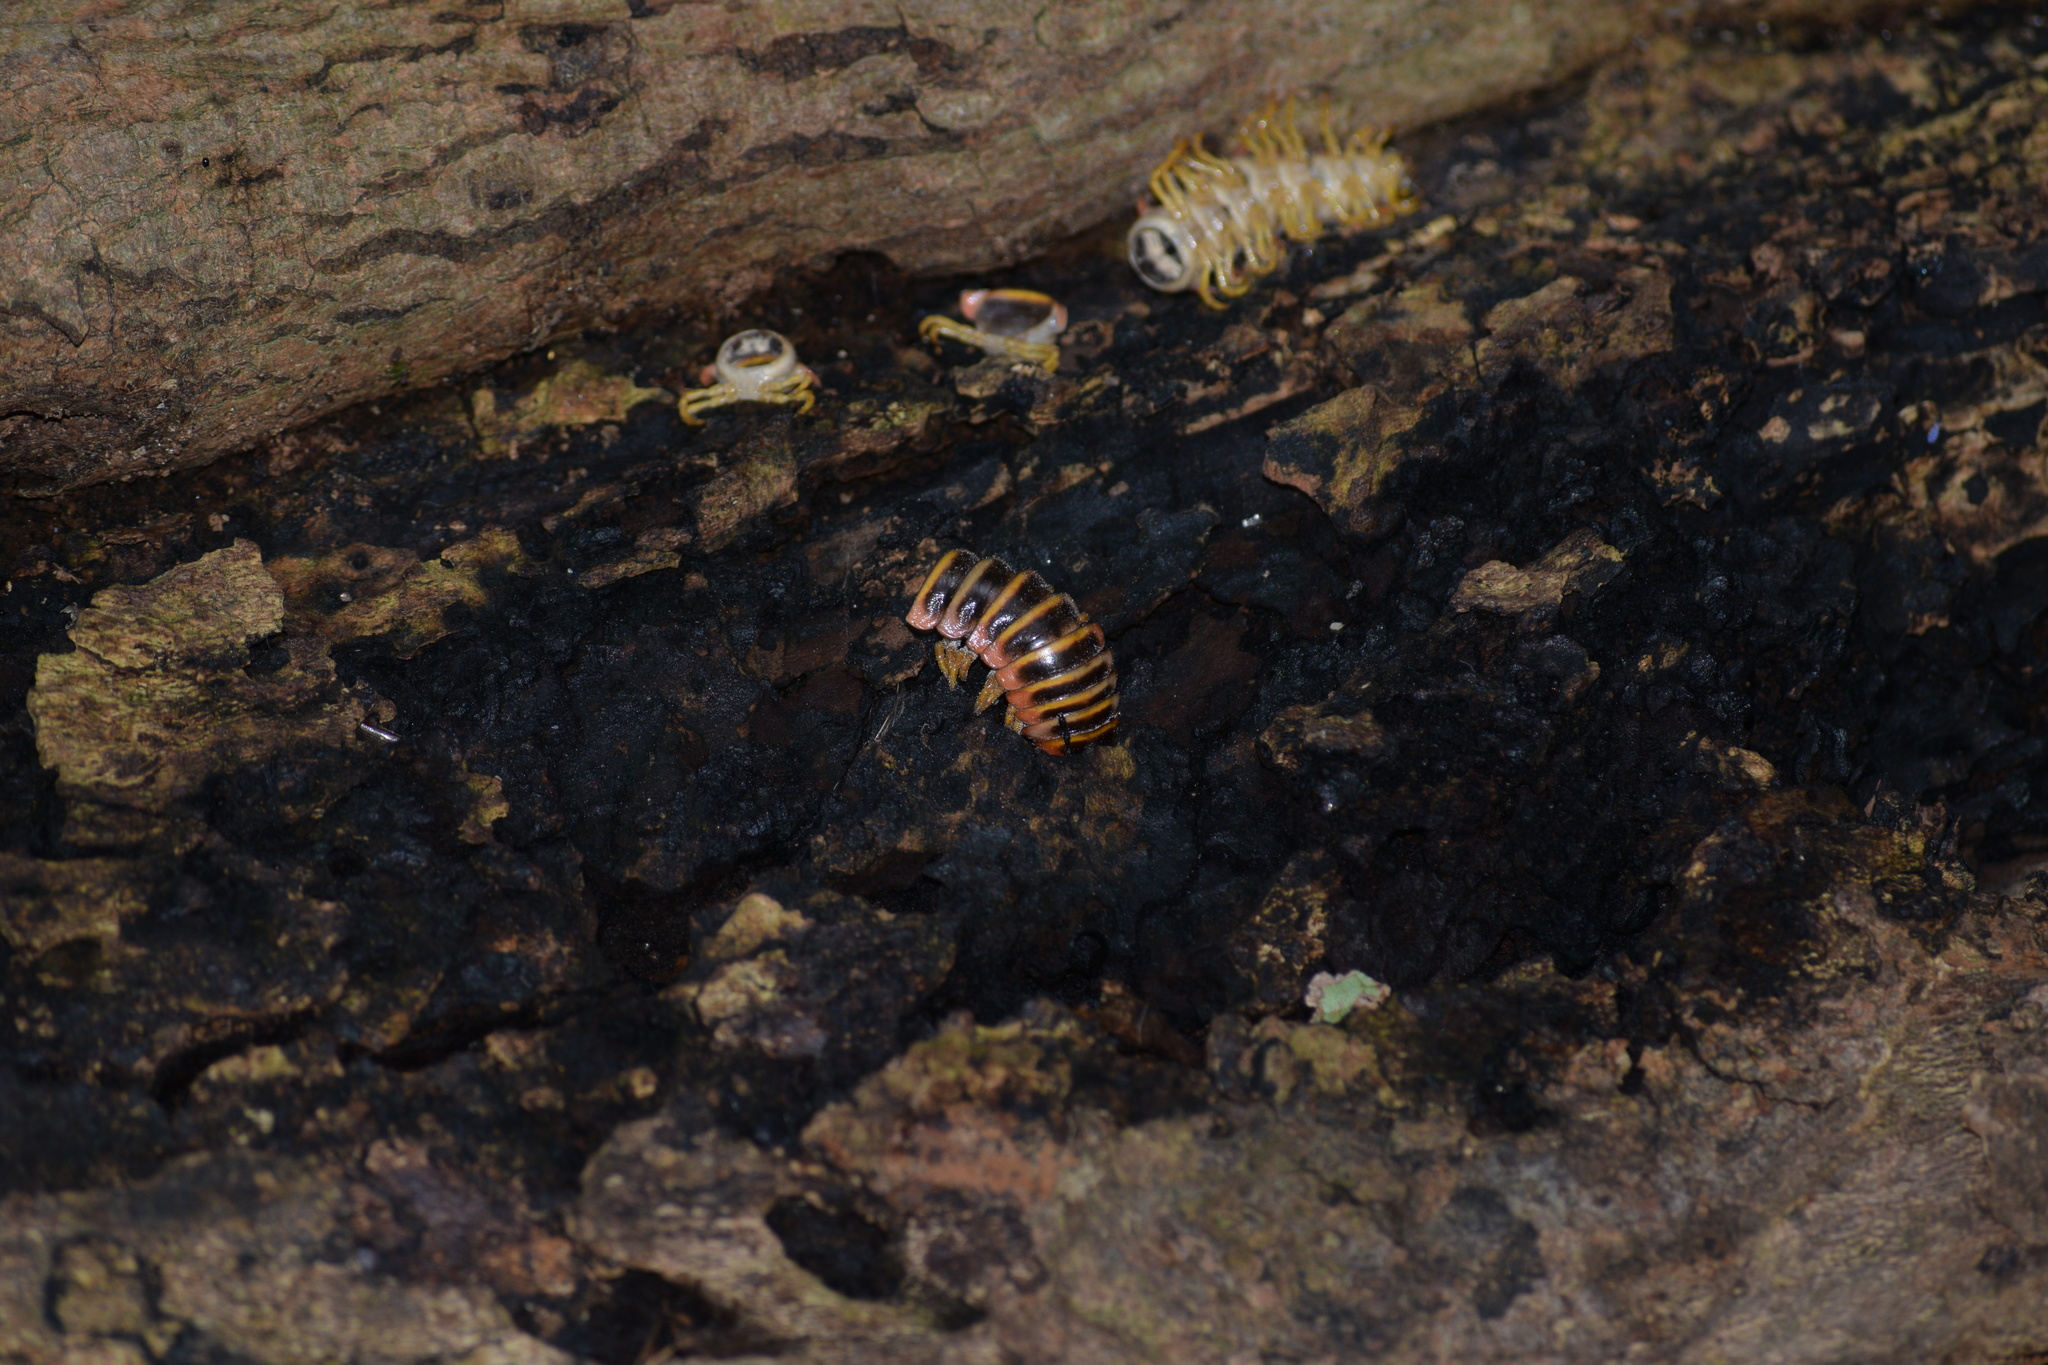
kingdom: Fungi
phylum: Entomophthoromycota
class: Entomophthoromycetes
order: Entomophthorales
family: Entomophthoraceae
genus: Arthrophaga
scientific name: Arthrophaga myriapodina
